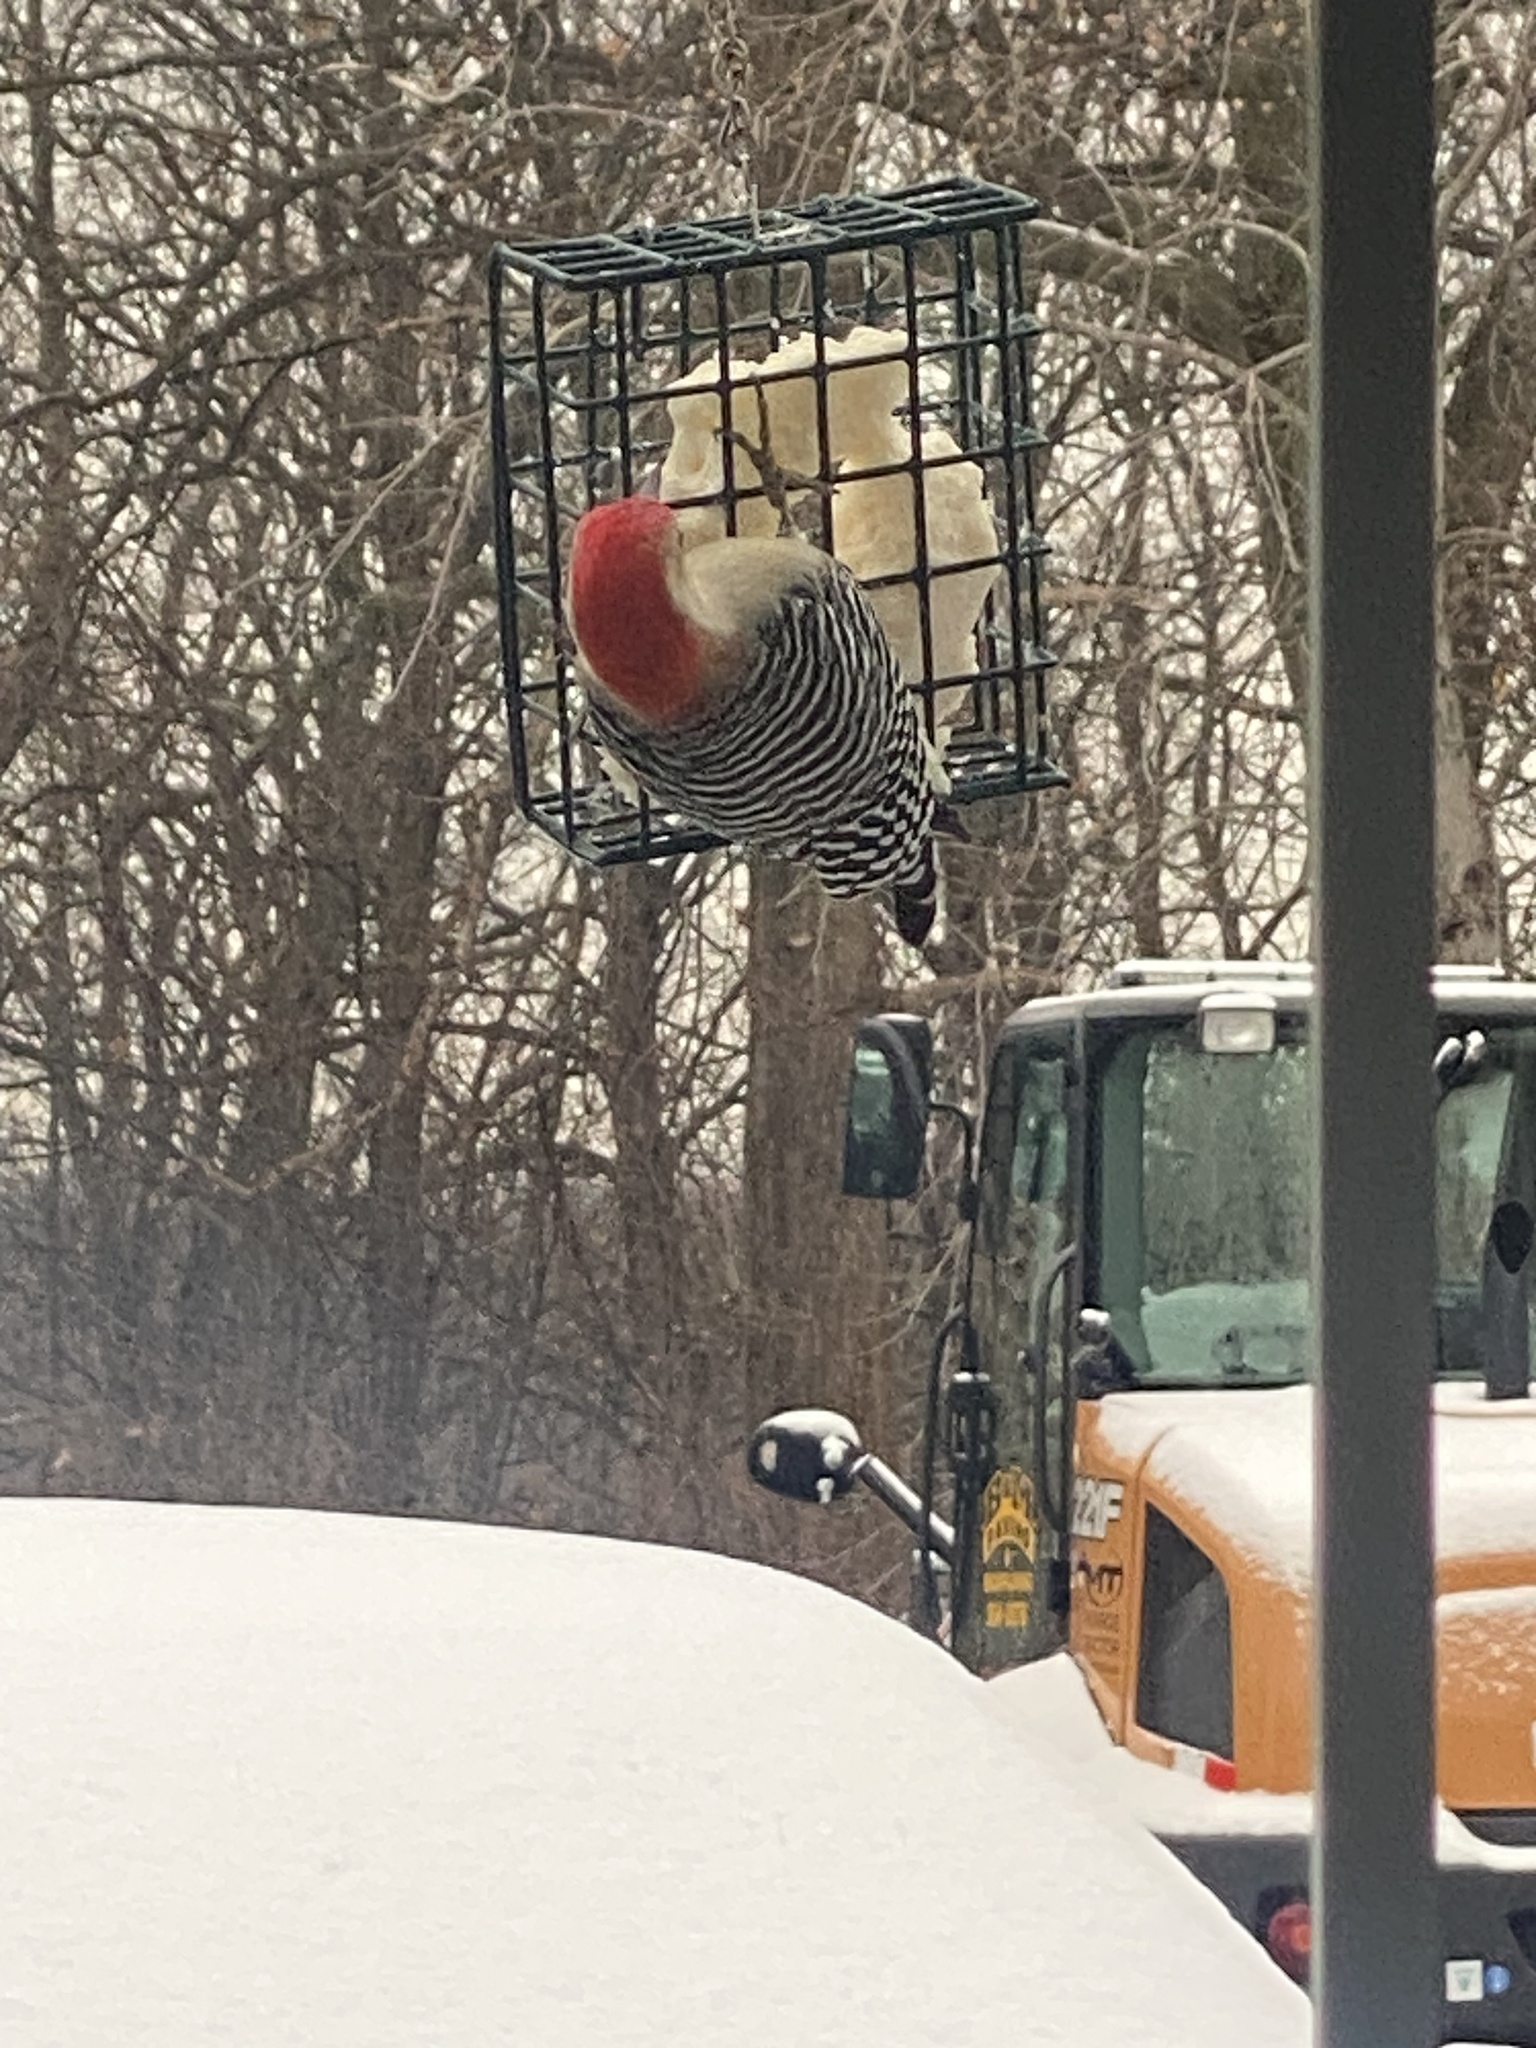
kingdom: Animalia
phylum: Chordata
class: Aves
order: Piciformes
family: Picidae
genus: Melanerpes
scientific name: Melanerpes carolinus
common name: Red-bellied woodpecker
